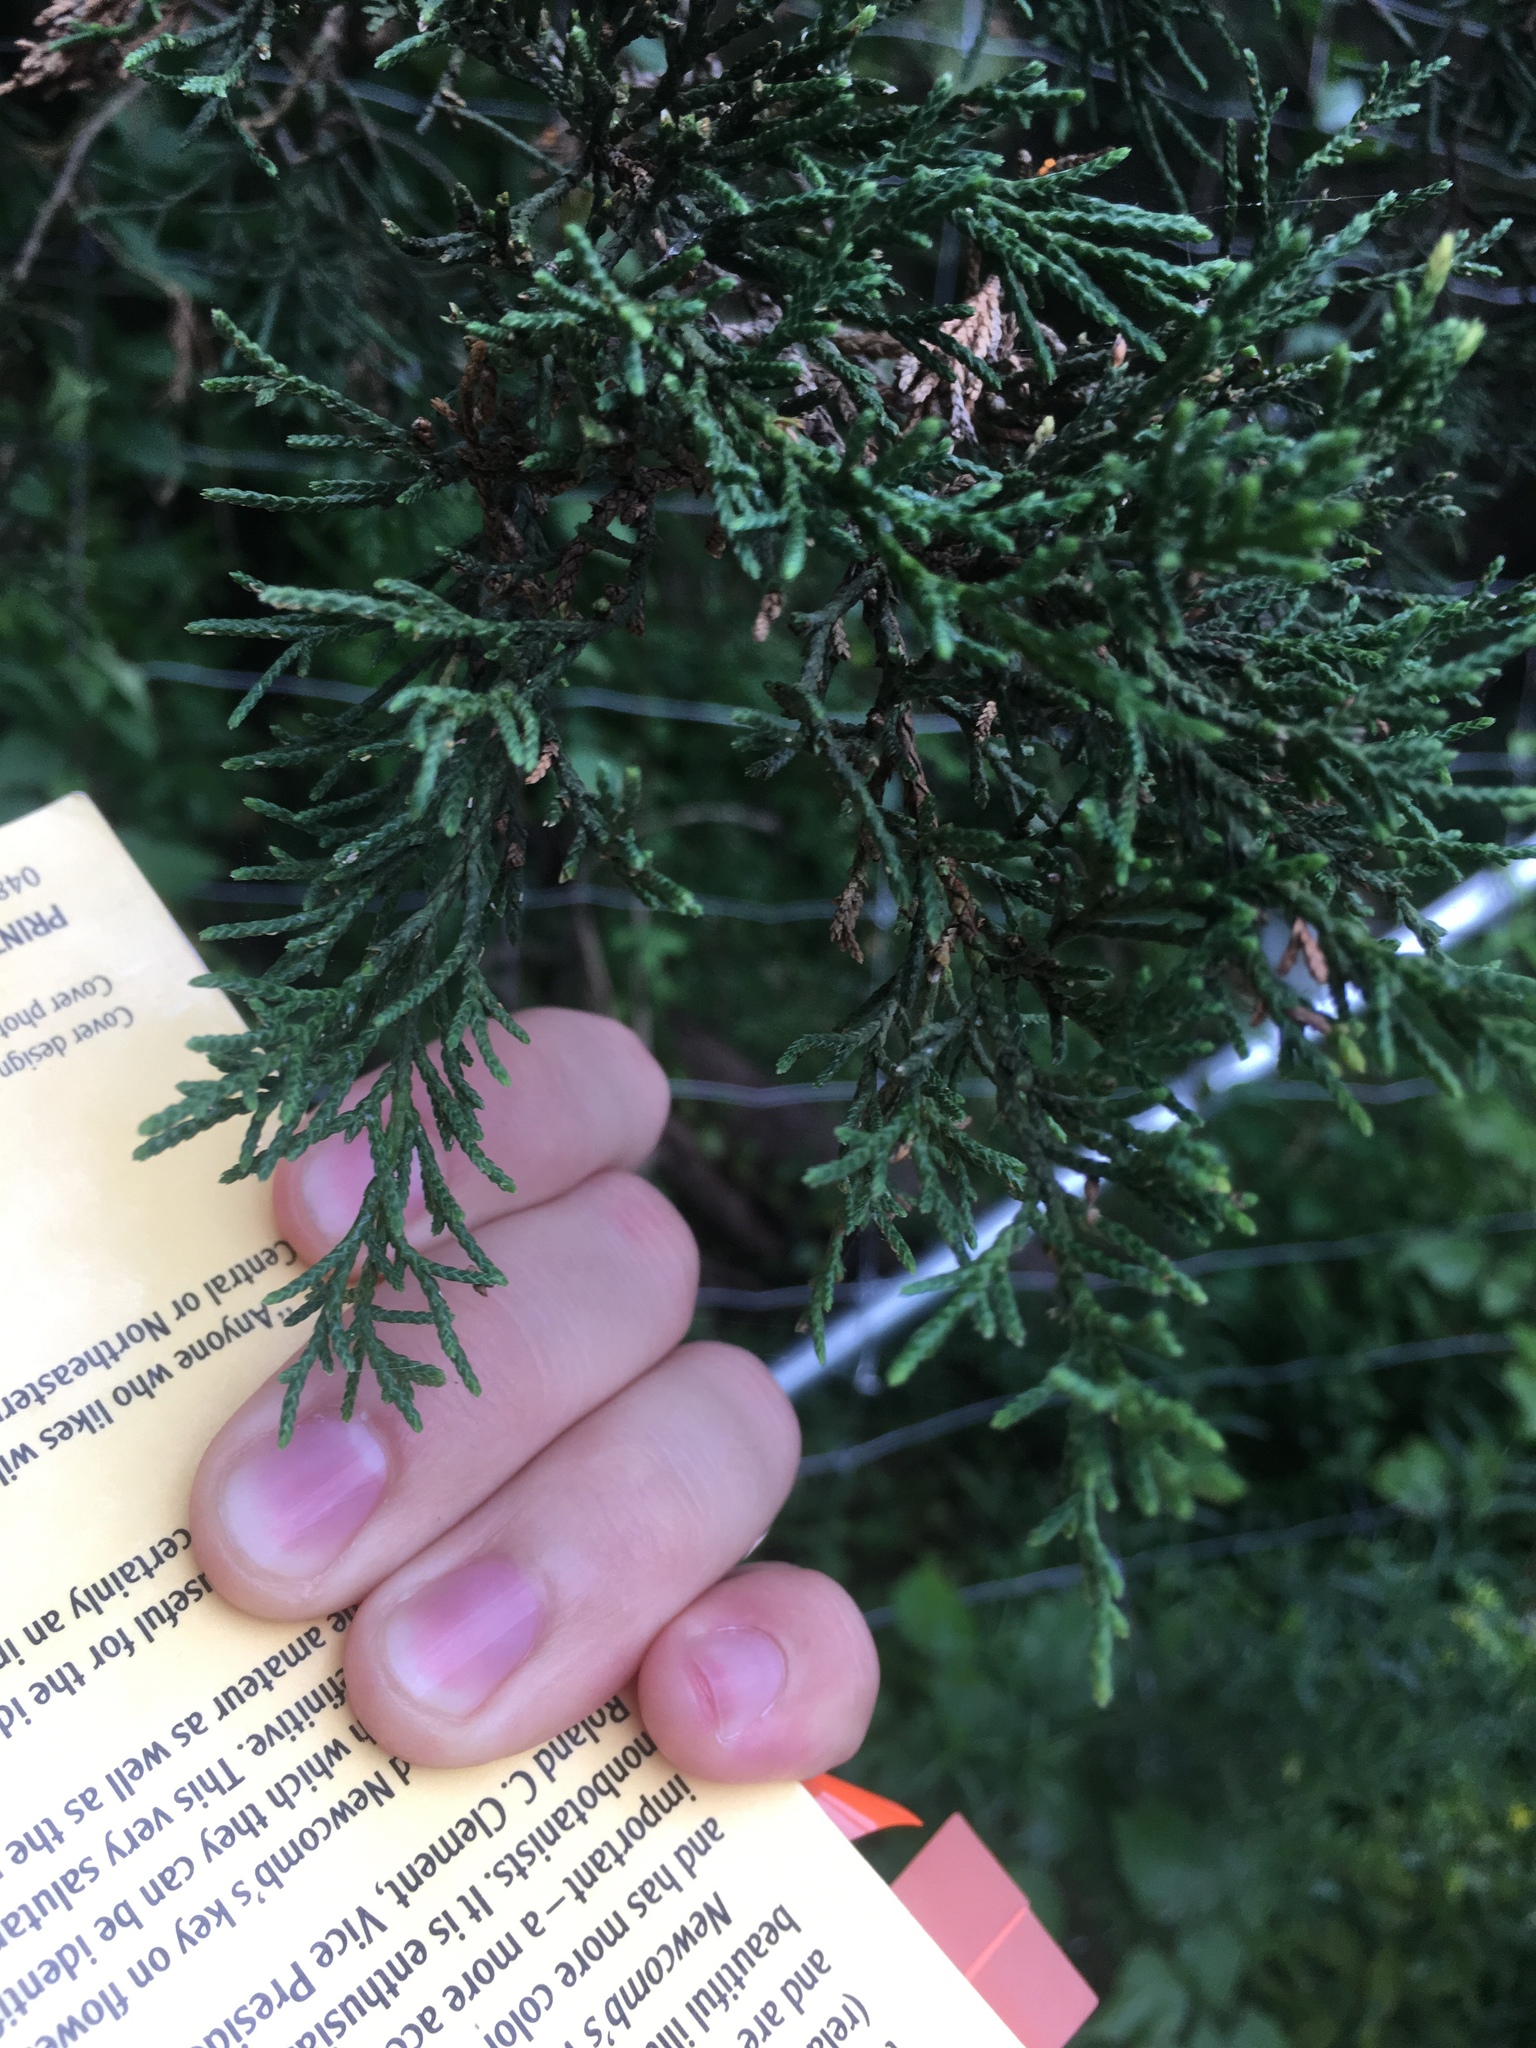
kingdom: Plantae
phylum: Tracheophyta
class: Pinopsida
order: Pinales
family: Cupressaceae
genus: Juniperus
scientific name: Juniperus virginiana
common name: Red juniper
